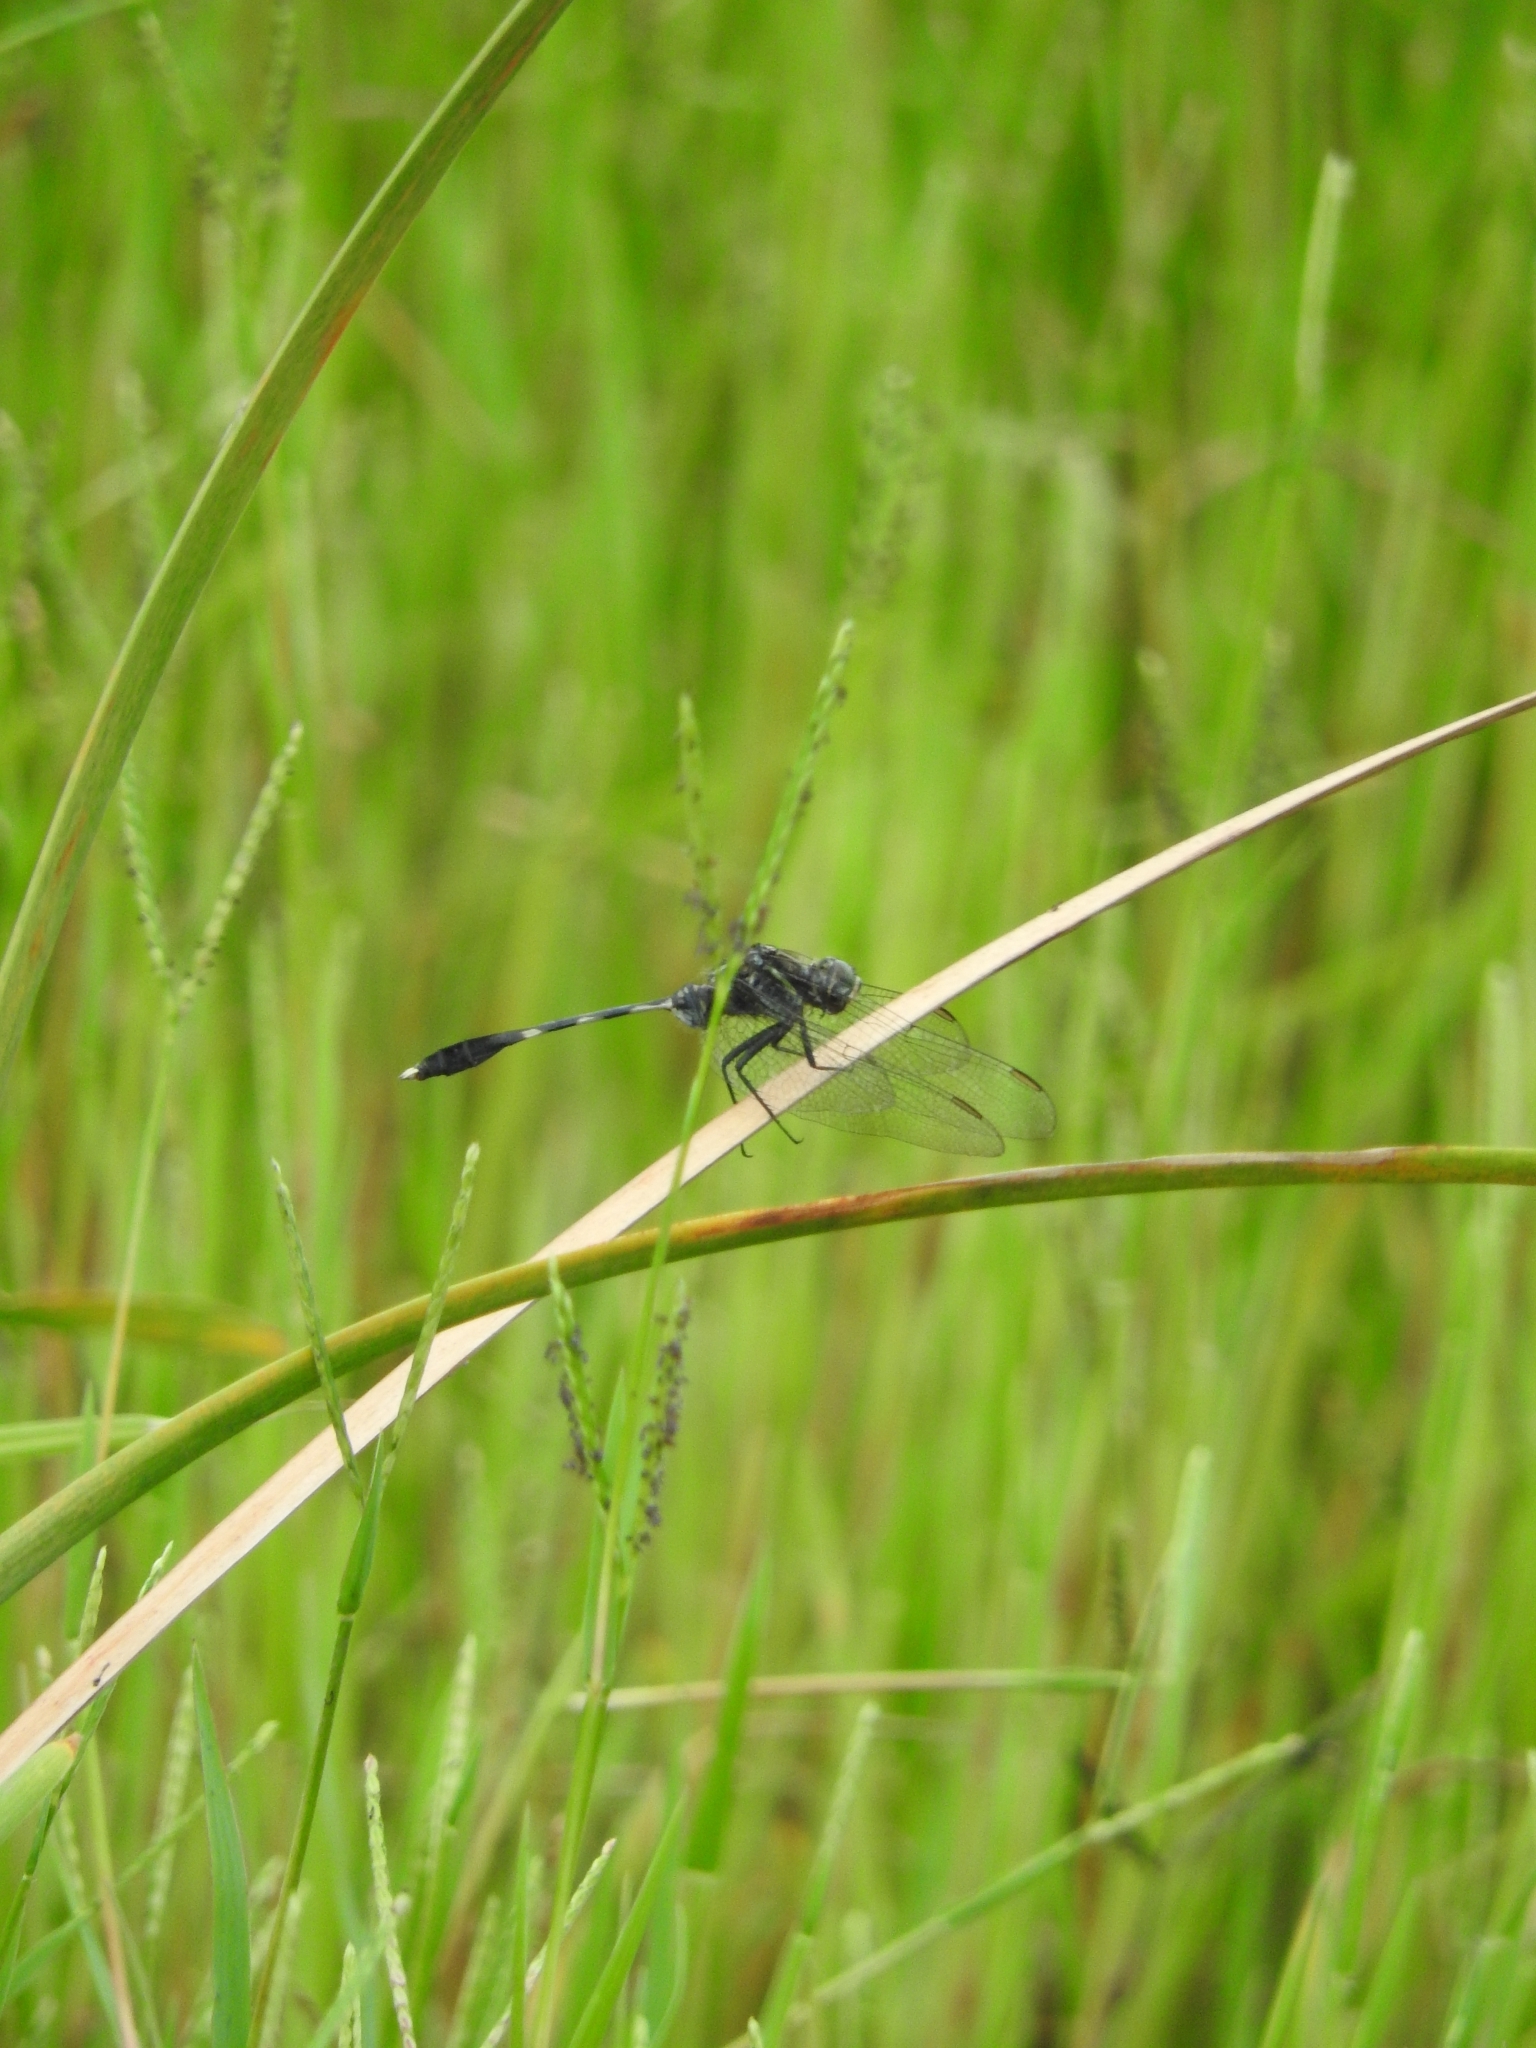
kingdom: Animalia
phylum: Arthropoda
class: Insecta
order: Odonata
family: Libellulidae
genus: Orthetrum
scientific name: Orthetrum sabina
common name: Slender skimmer
